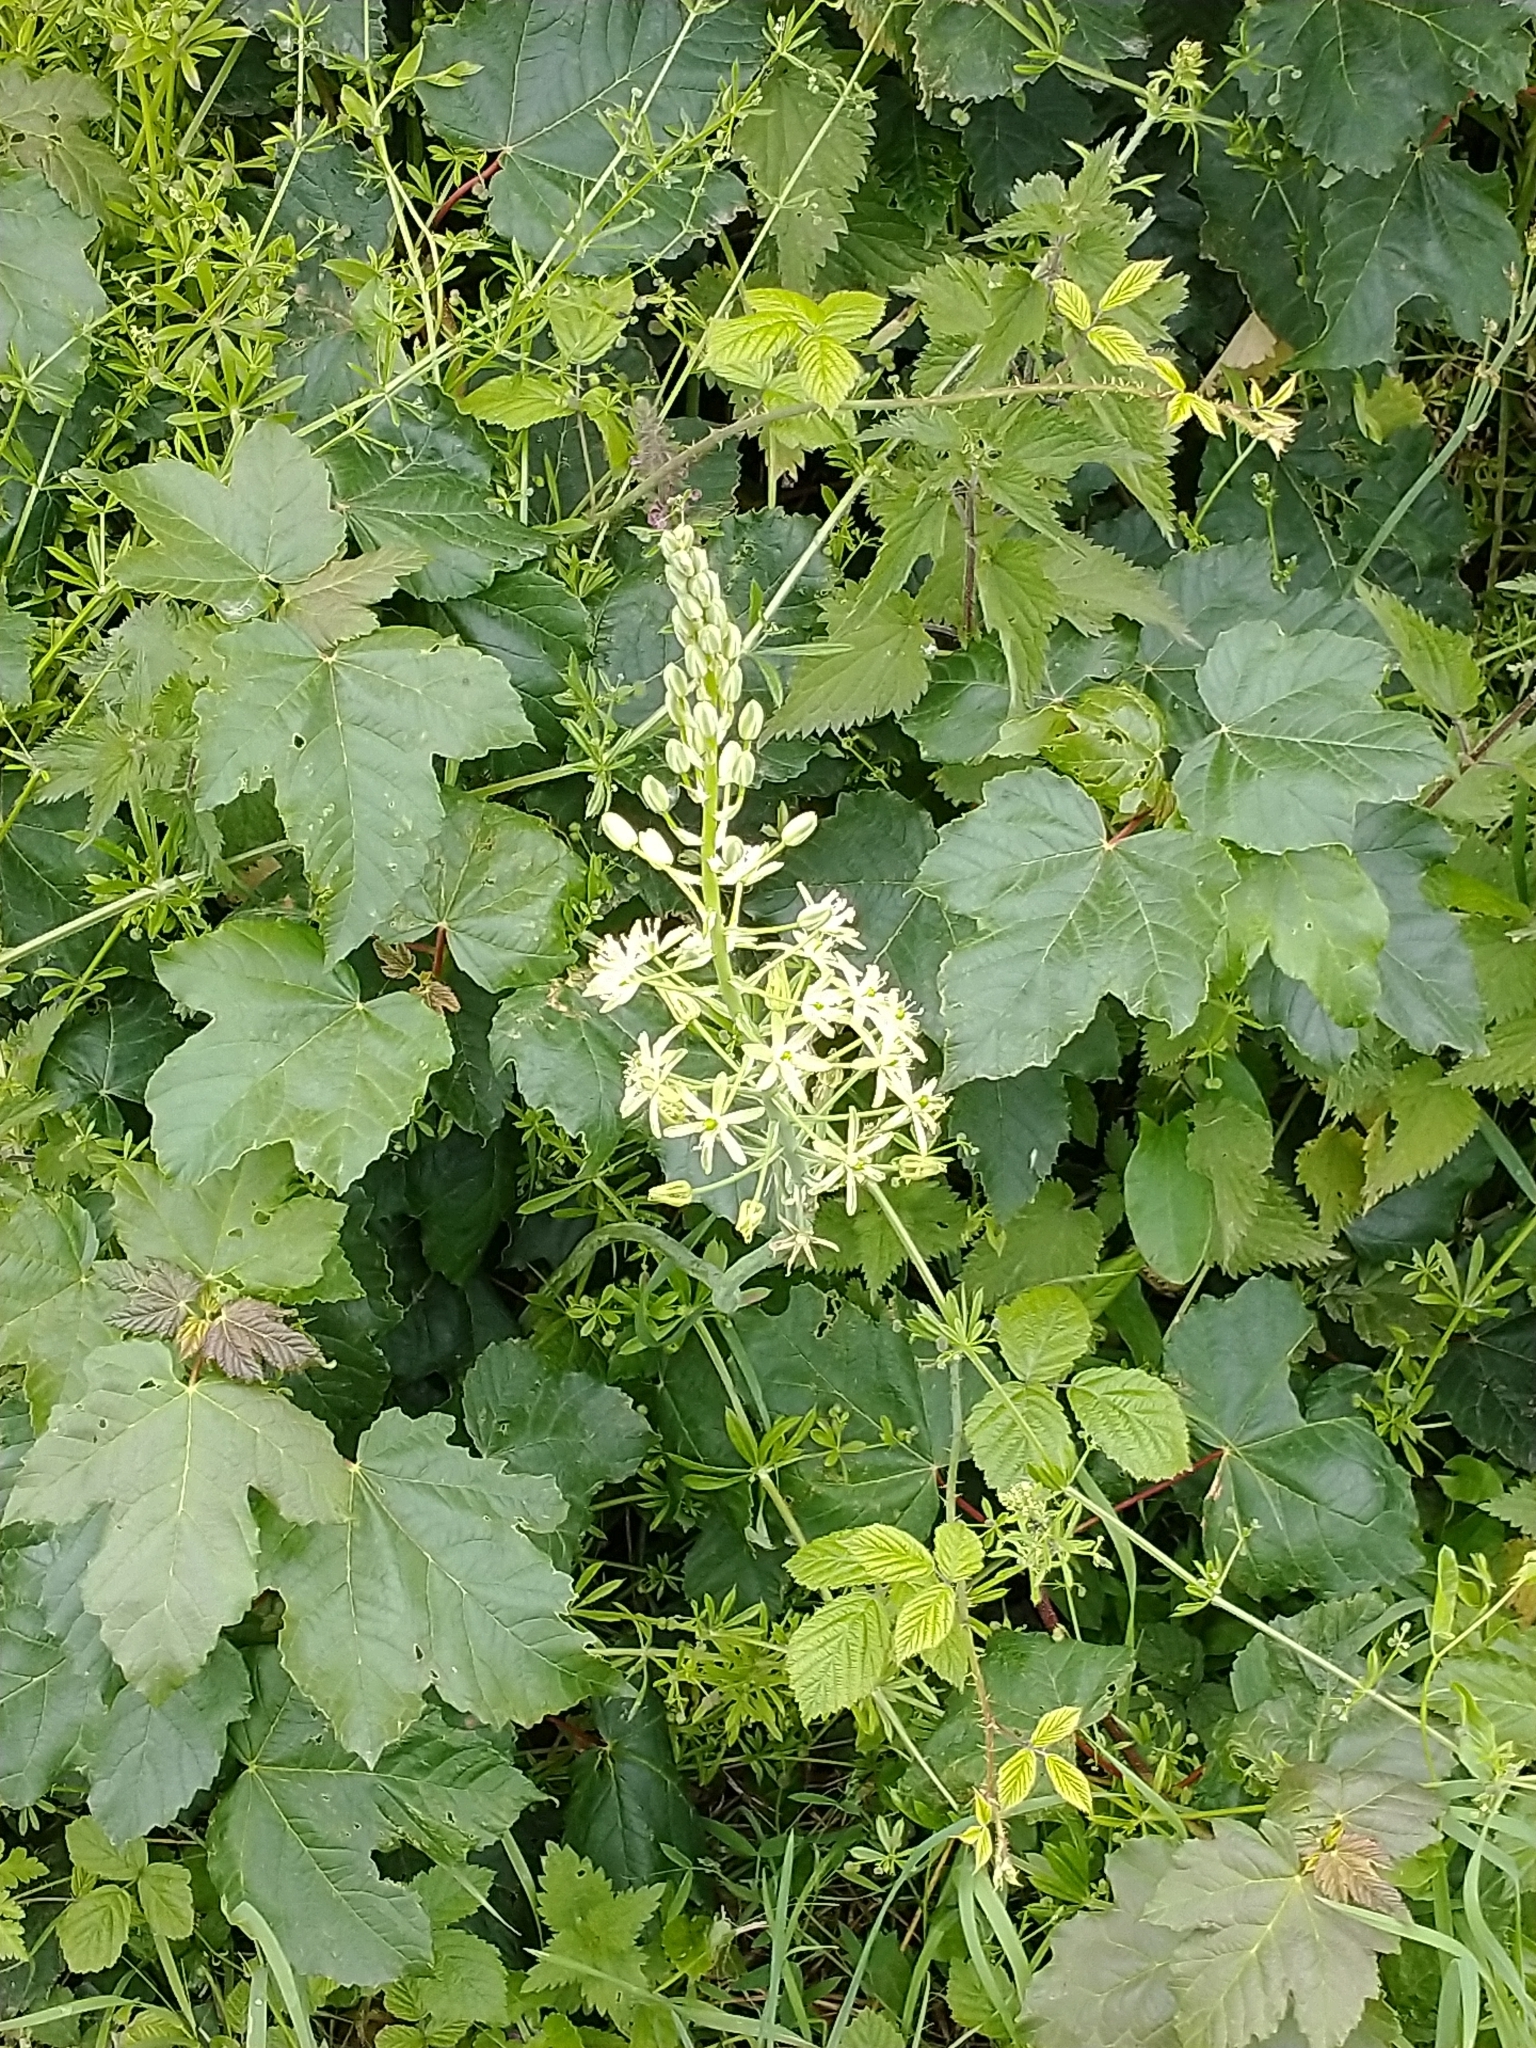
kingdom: Plantae
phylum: Tracheophyta
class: Liliopsida
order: Asparagales
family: Asparagaceae
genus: Ornithogalum
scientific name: Ornithogalum pyrenaicum
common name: Spiked star-of-bethlehem
